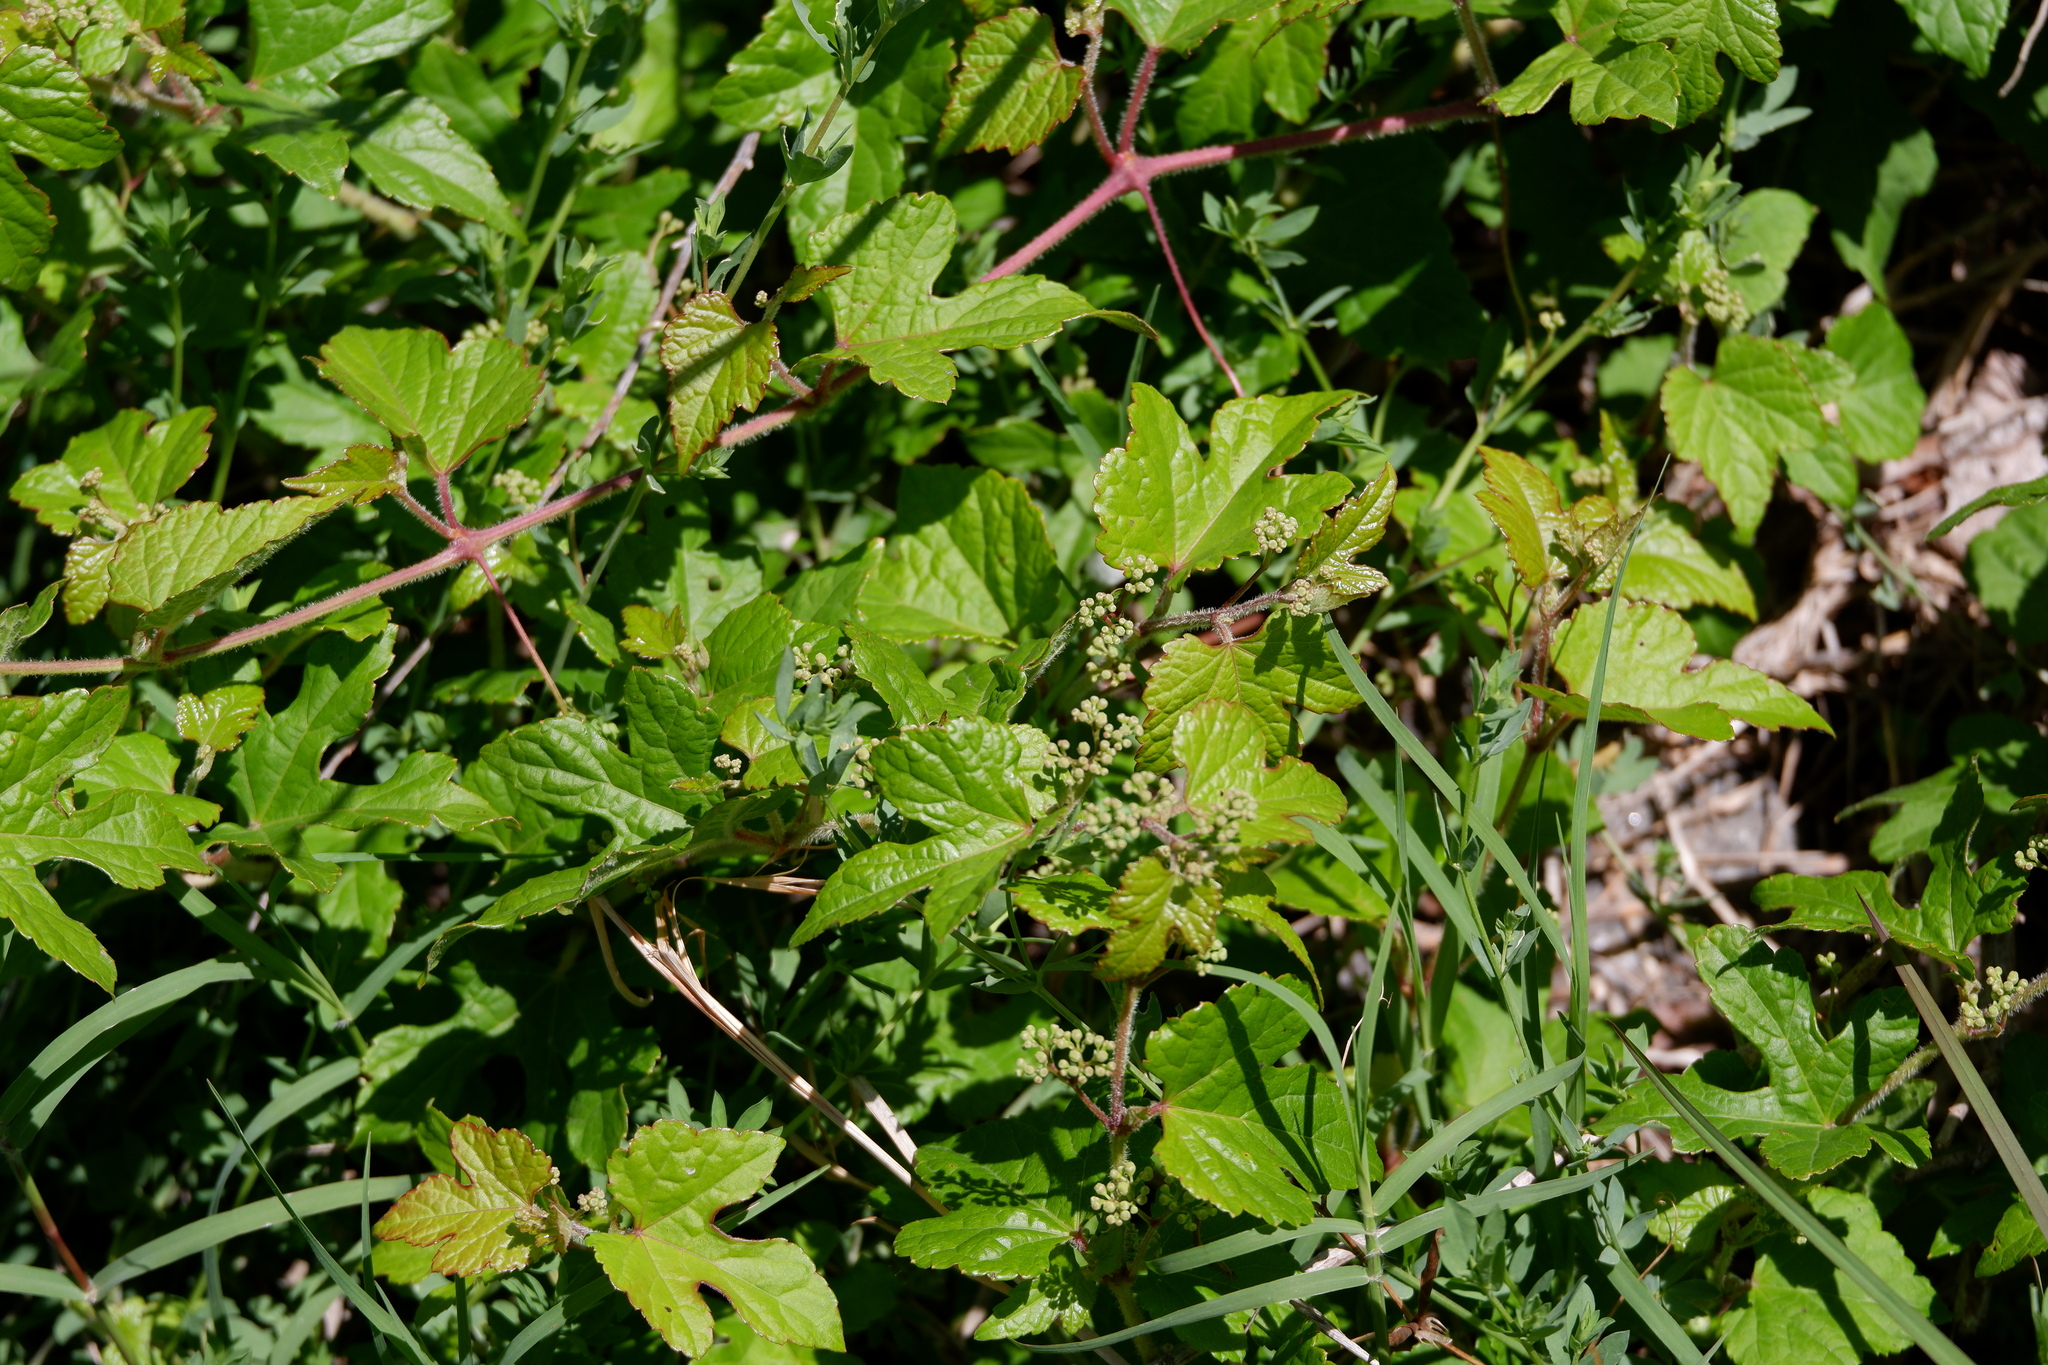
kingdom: Plantae
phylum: Tracheophyta
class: Magnoliopsida
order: Vitales
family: Vitaceae
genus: Ampelopsis
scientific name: Ampelopsis glandulosa
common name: Amur peppervine
